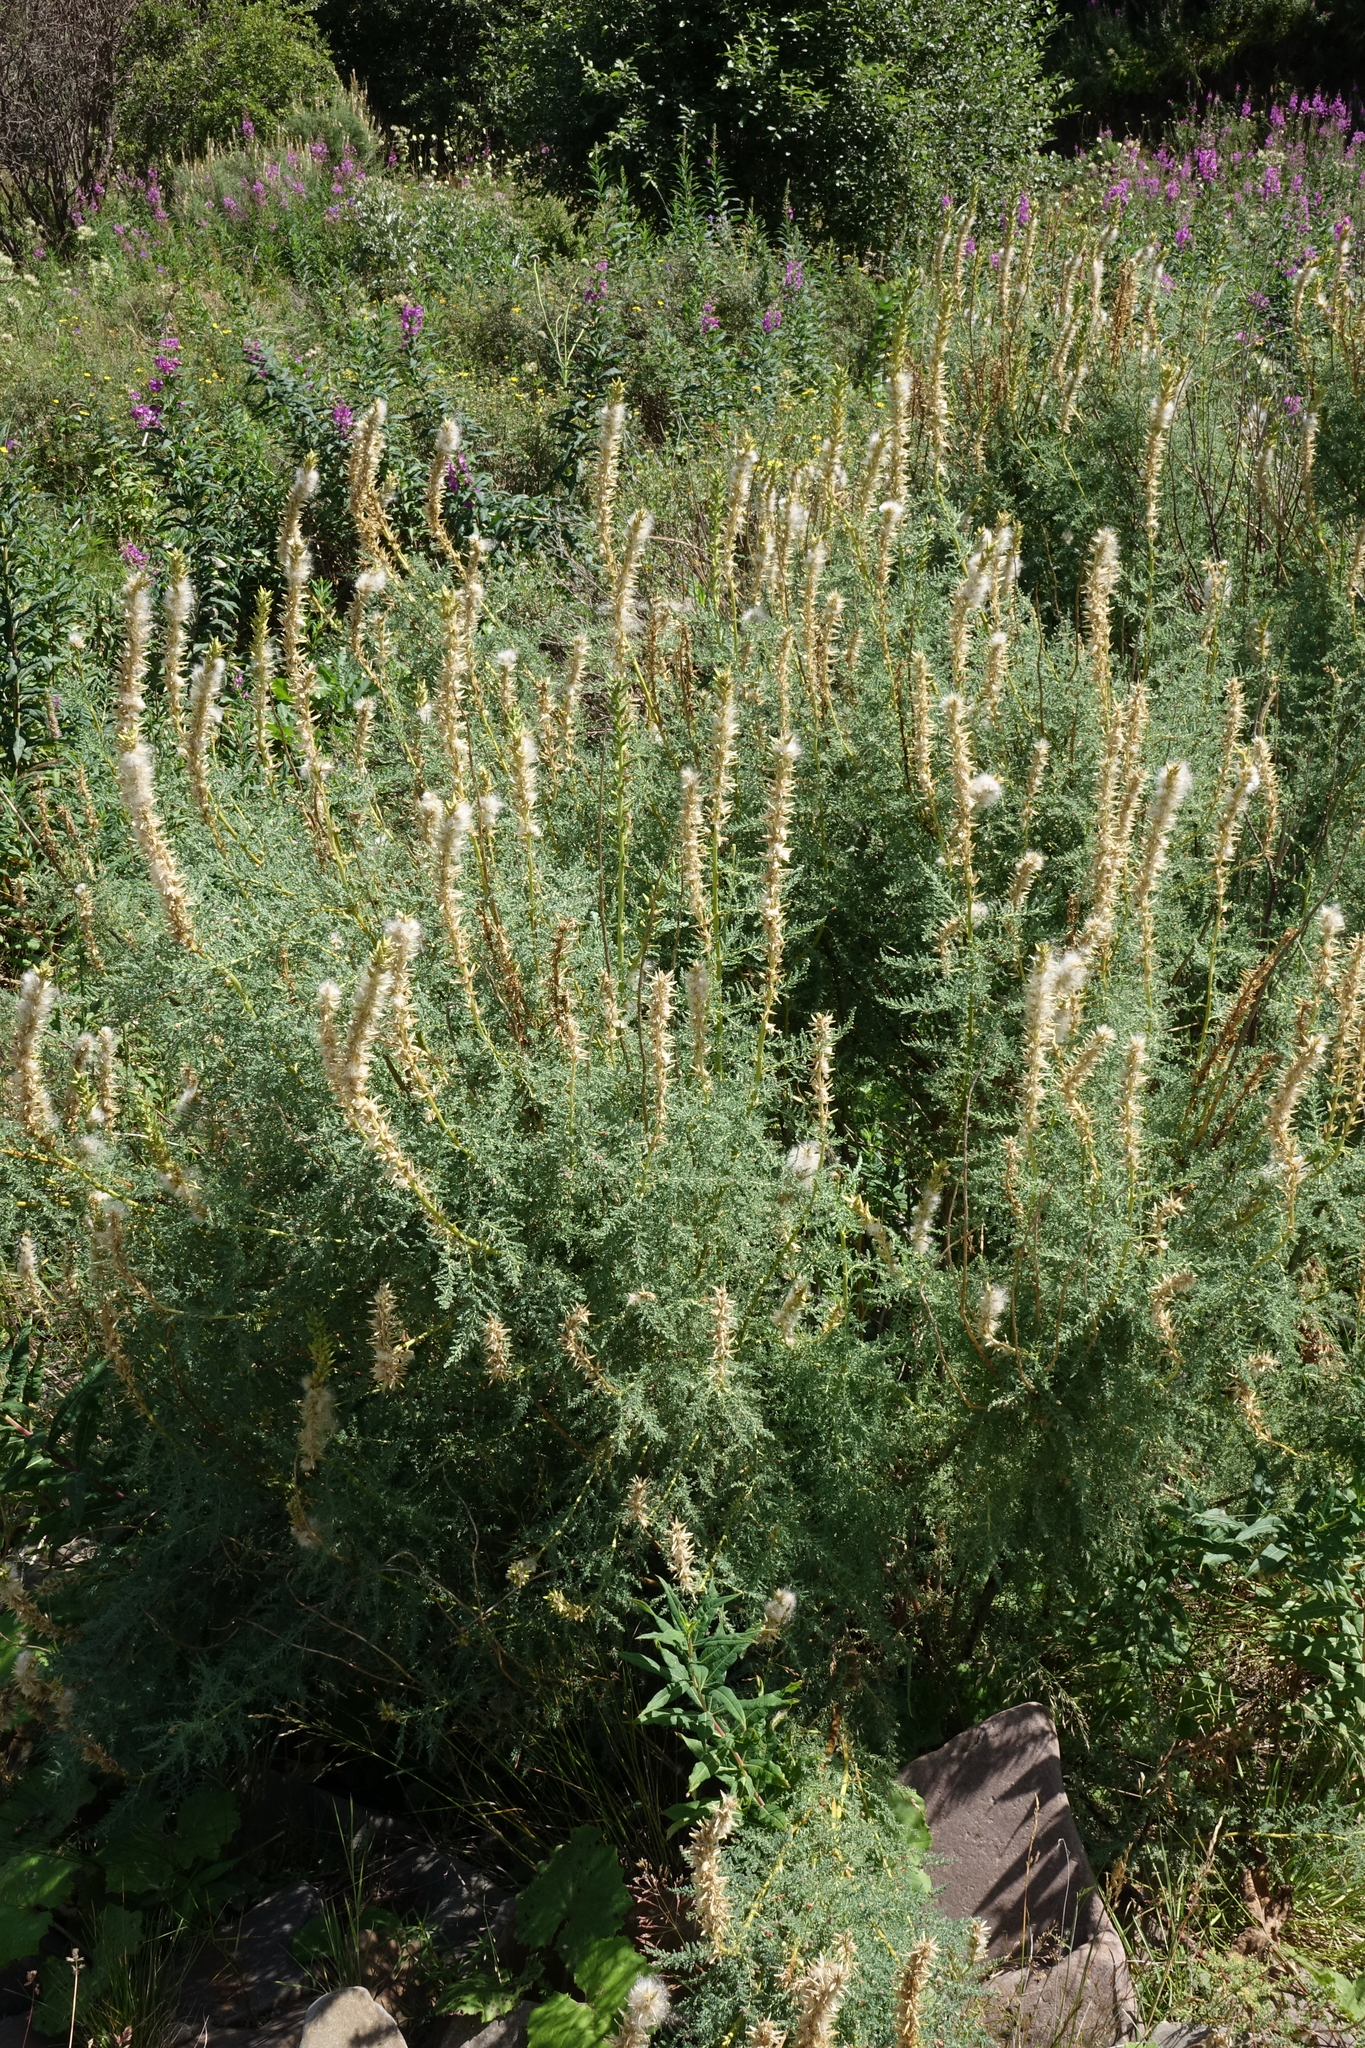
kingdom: Plantae
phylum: Tracheophyta
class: Magnoliopsida
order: Caryophyllales
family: Tamaricaceae
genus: Myricaria
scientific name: Myricaria bracteata
